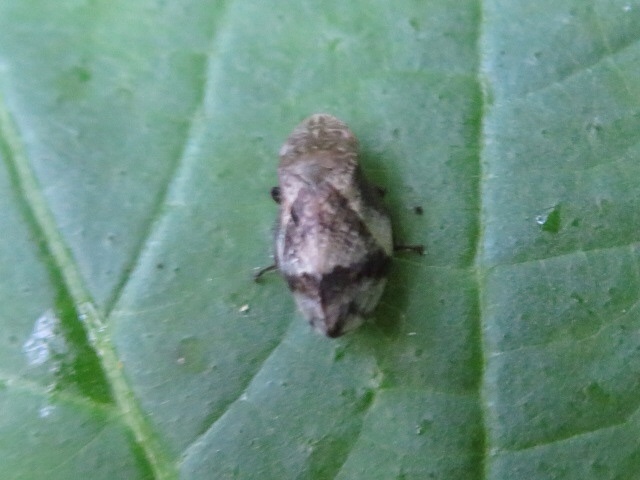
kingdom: Animalia
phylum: Arthropoda
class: Insecta
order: Hemiptera
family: Aphrophoridae
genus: Lepyronia
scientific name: Lepyronia quadrangularis
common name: Diamond-backed spittlebug
